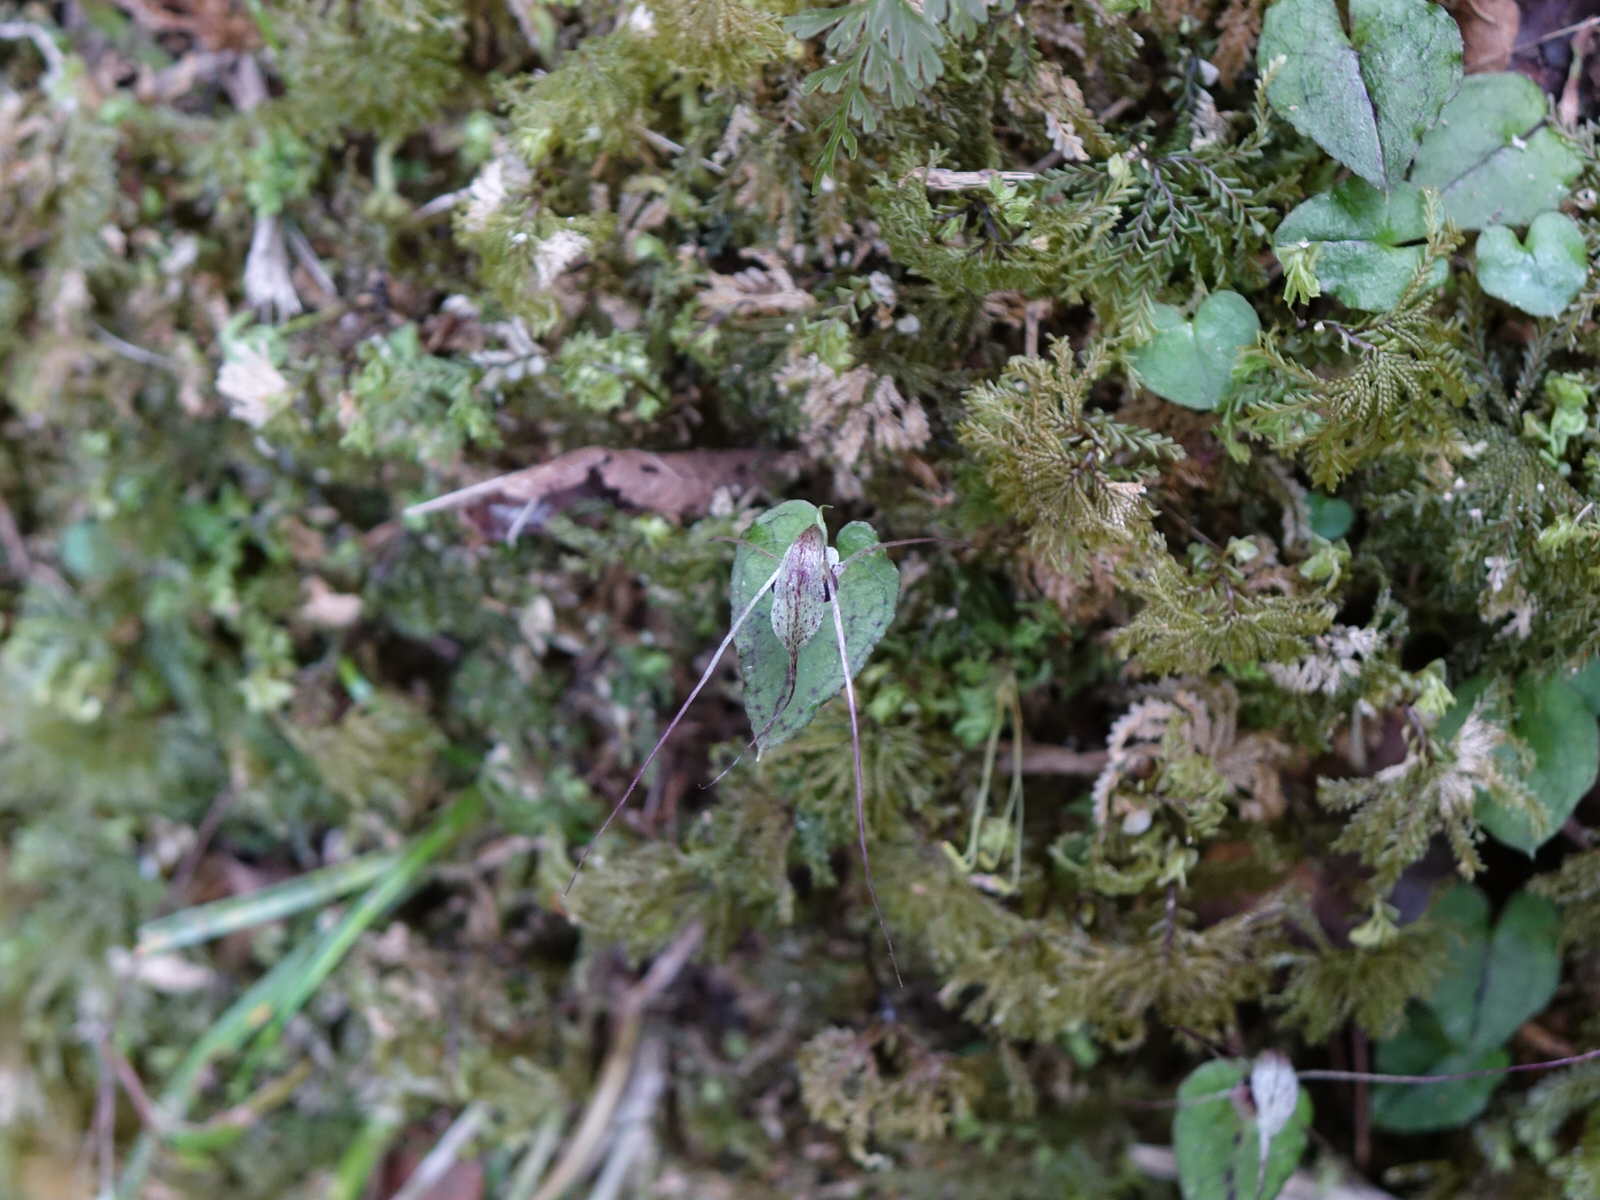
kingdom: Plantae
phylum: Tracheophyta
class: Liliopsida
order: Asparagales
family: Orchidaceae
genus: Corybas
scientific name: Corybas acuminatus
